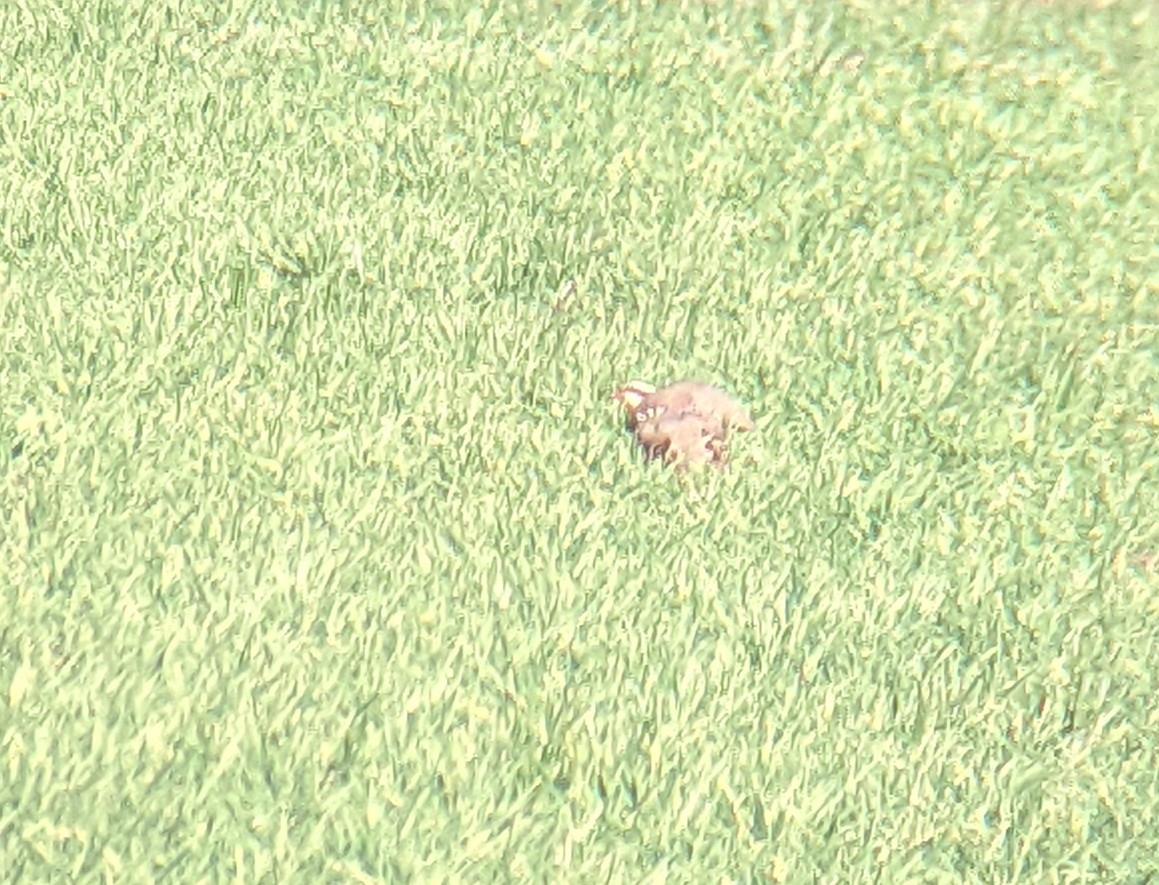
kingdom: Animalia
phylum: Chordata
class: Aves
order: Galliformes
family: Phasianidae
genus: Alectoris
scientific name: Alectoris rufa
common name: Red-legged partridge
